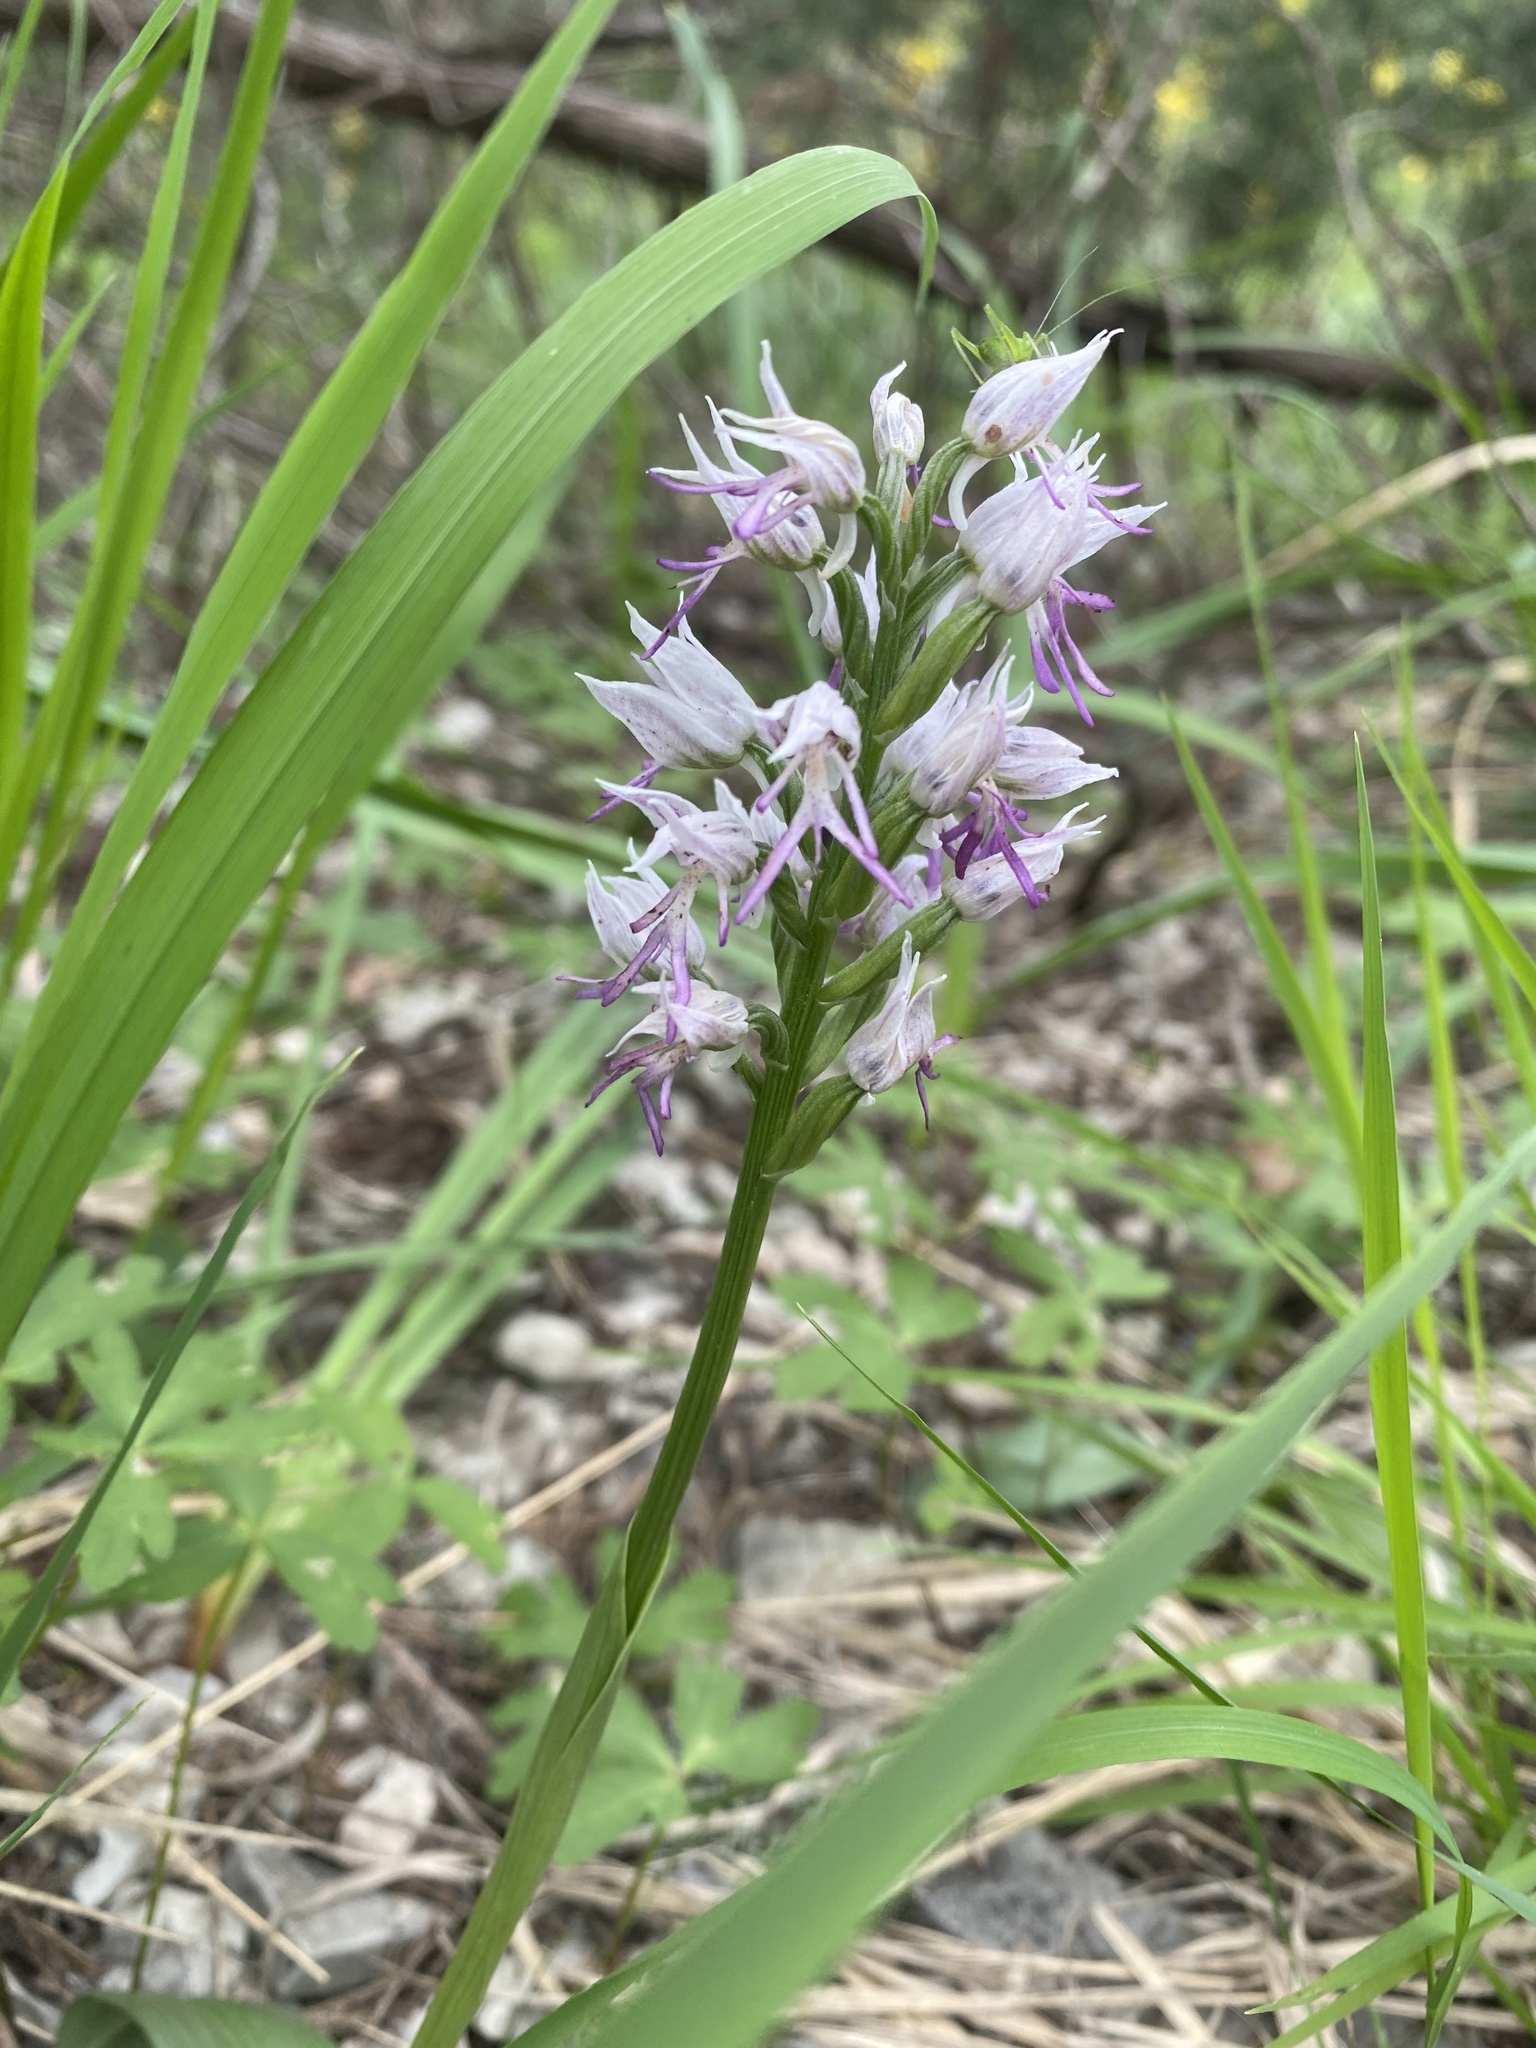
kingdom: Plantae
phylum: Tracheophyta
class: Liliopsida
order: Asparagales
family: Orchidaceae
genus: Orchis
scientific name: Orchis simia
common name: Monkey orchid
